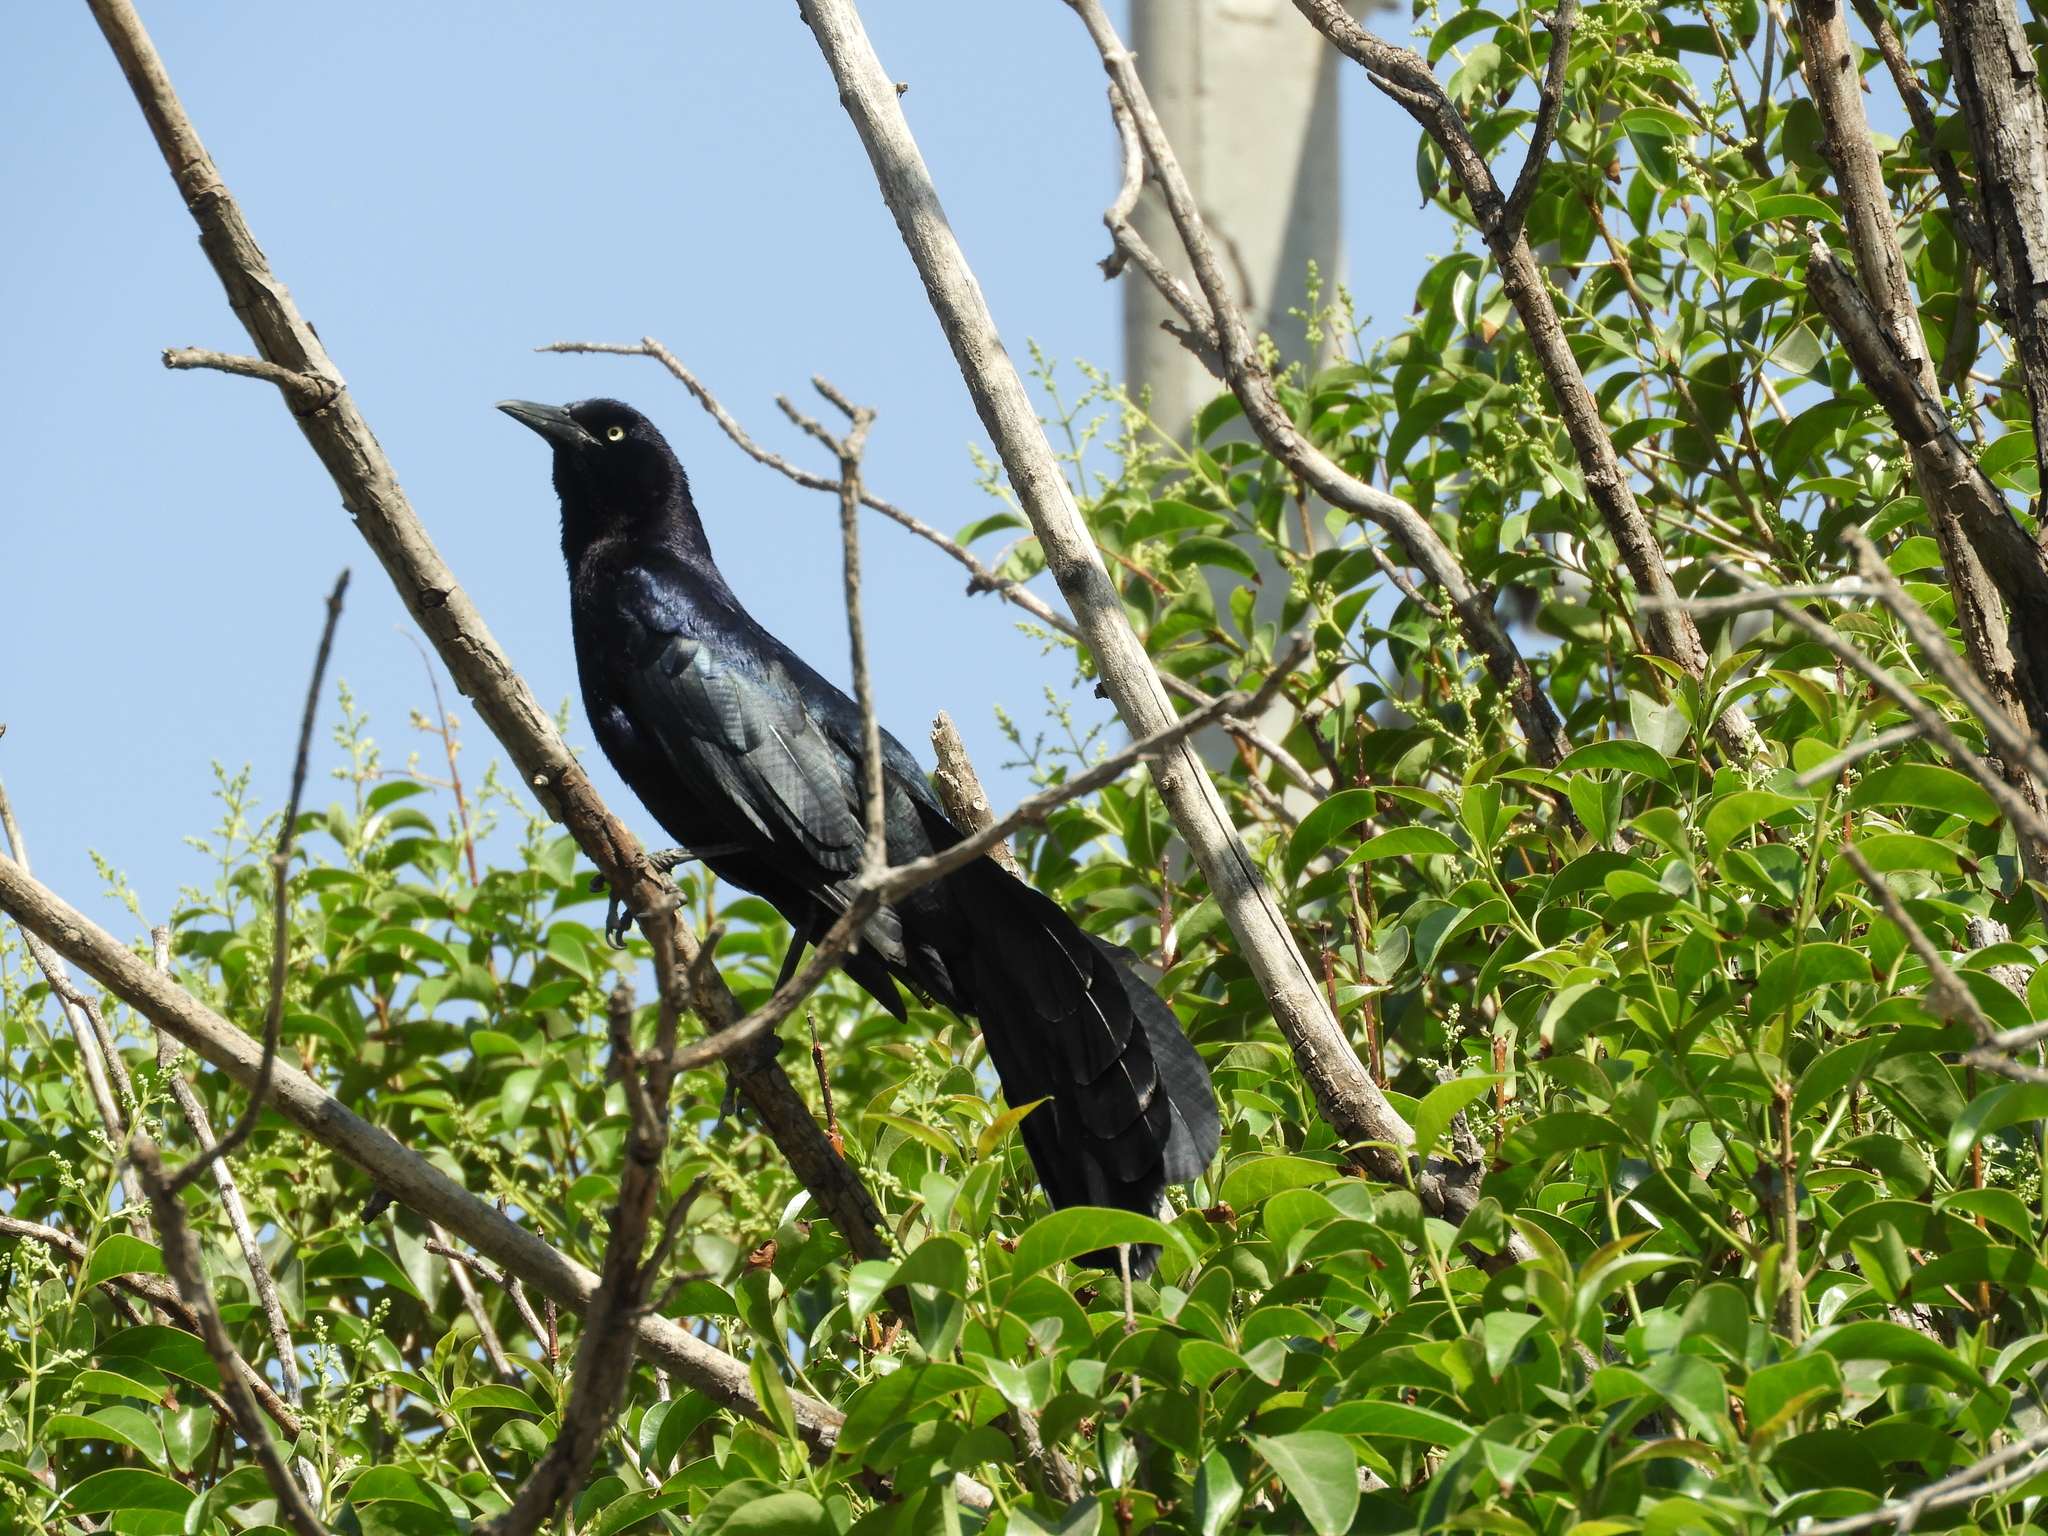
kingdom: Animalia
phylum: Chordata
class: Aves
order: Passeriformes
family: Icteridae
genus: Quiscalus
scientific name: Quiscalus mexicanus
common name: Great-tailed grackle
